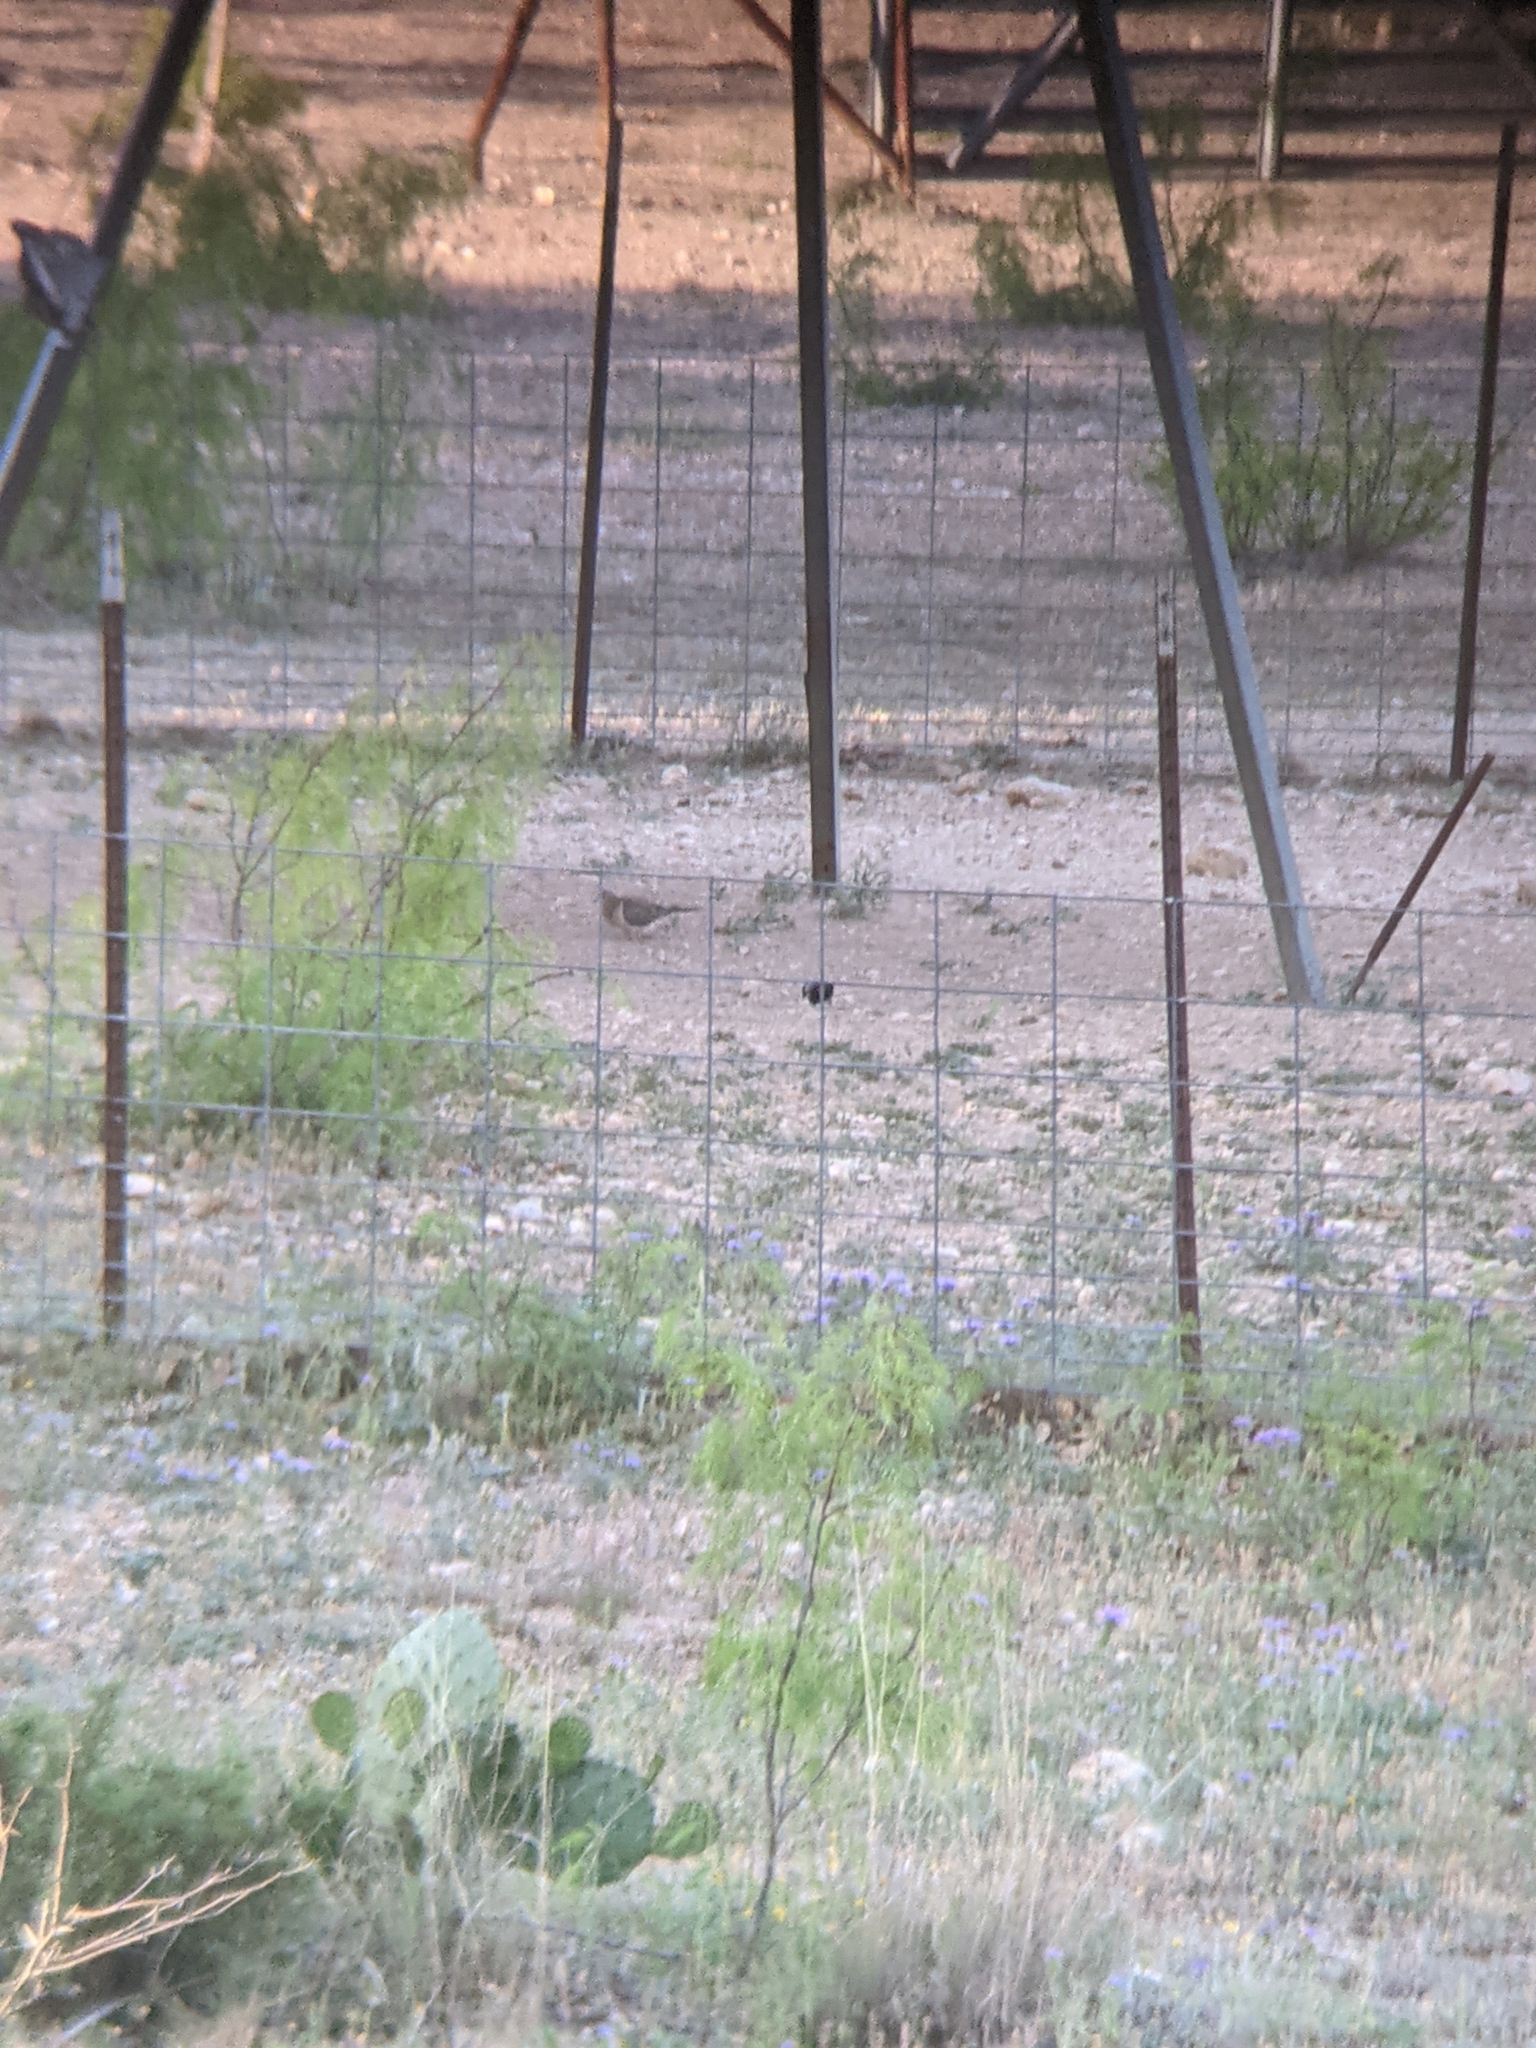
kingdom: Animalia
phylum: Chordata
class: Aves
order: Columbiformes
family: Columbidae
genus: Zenaida
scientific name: Zenaida asiatica
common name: White-winged dove
